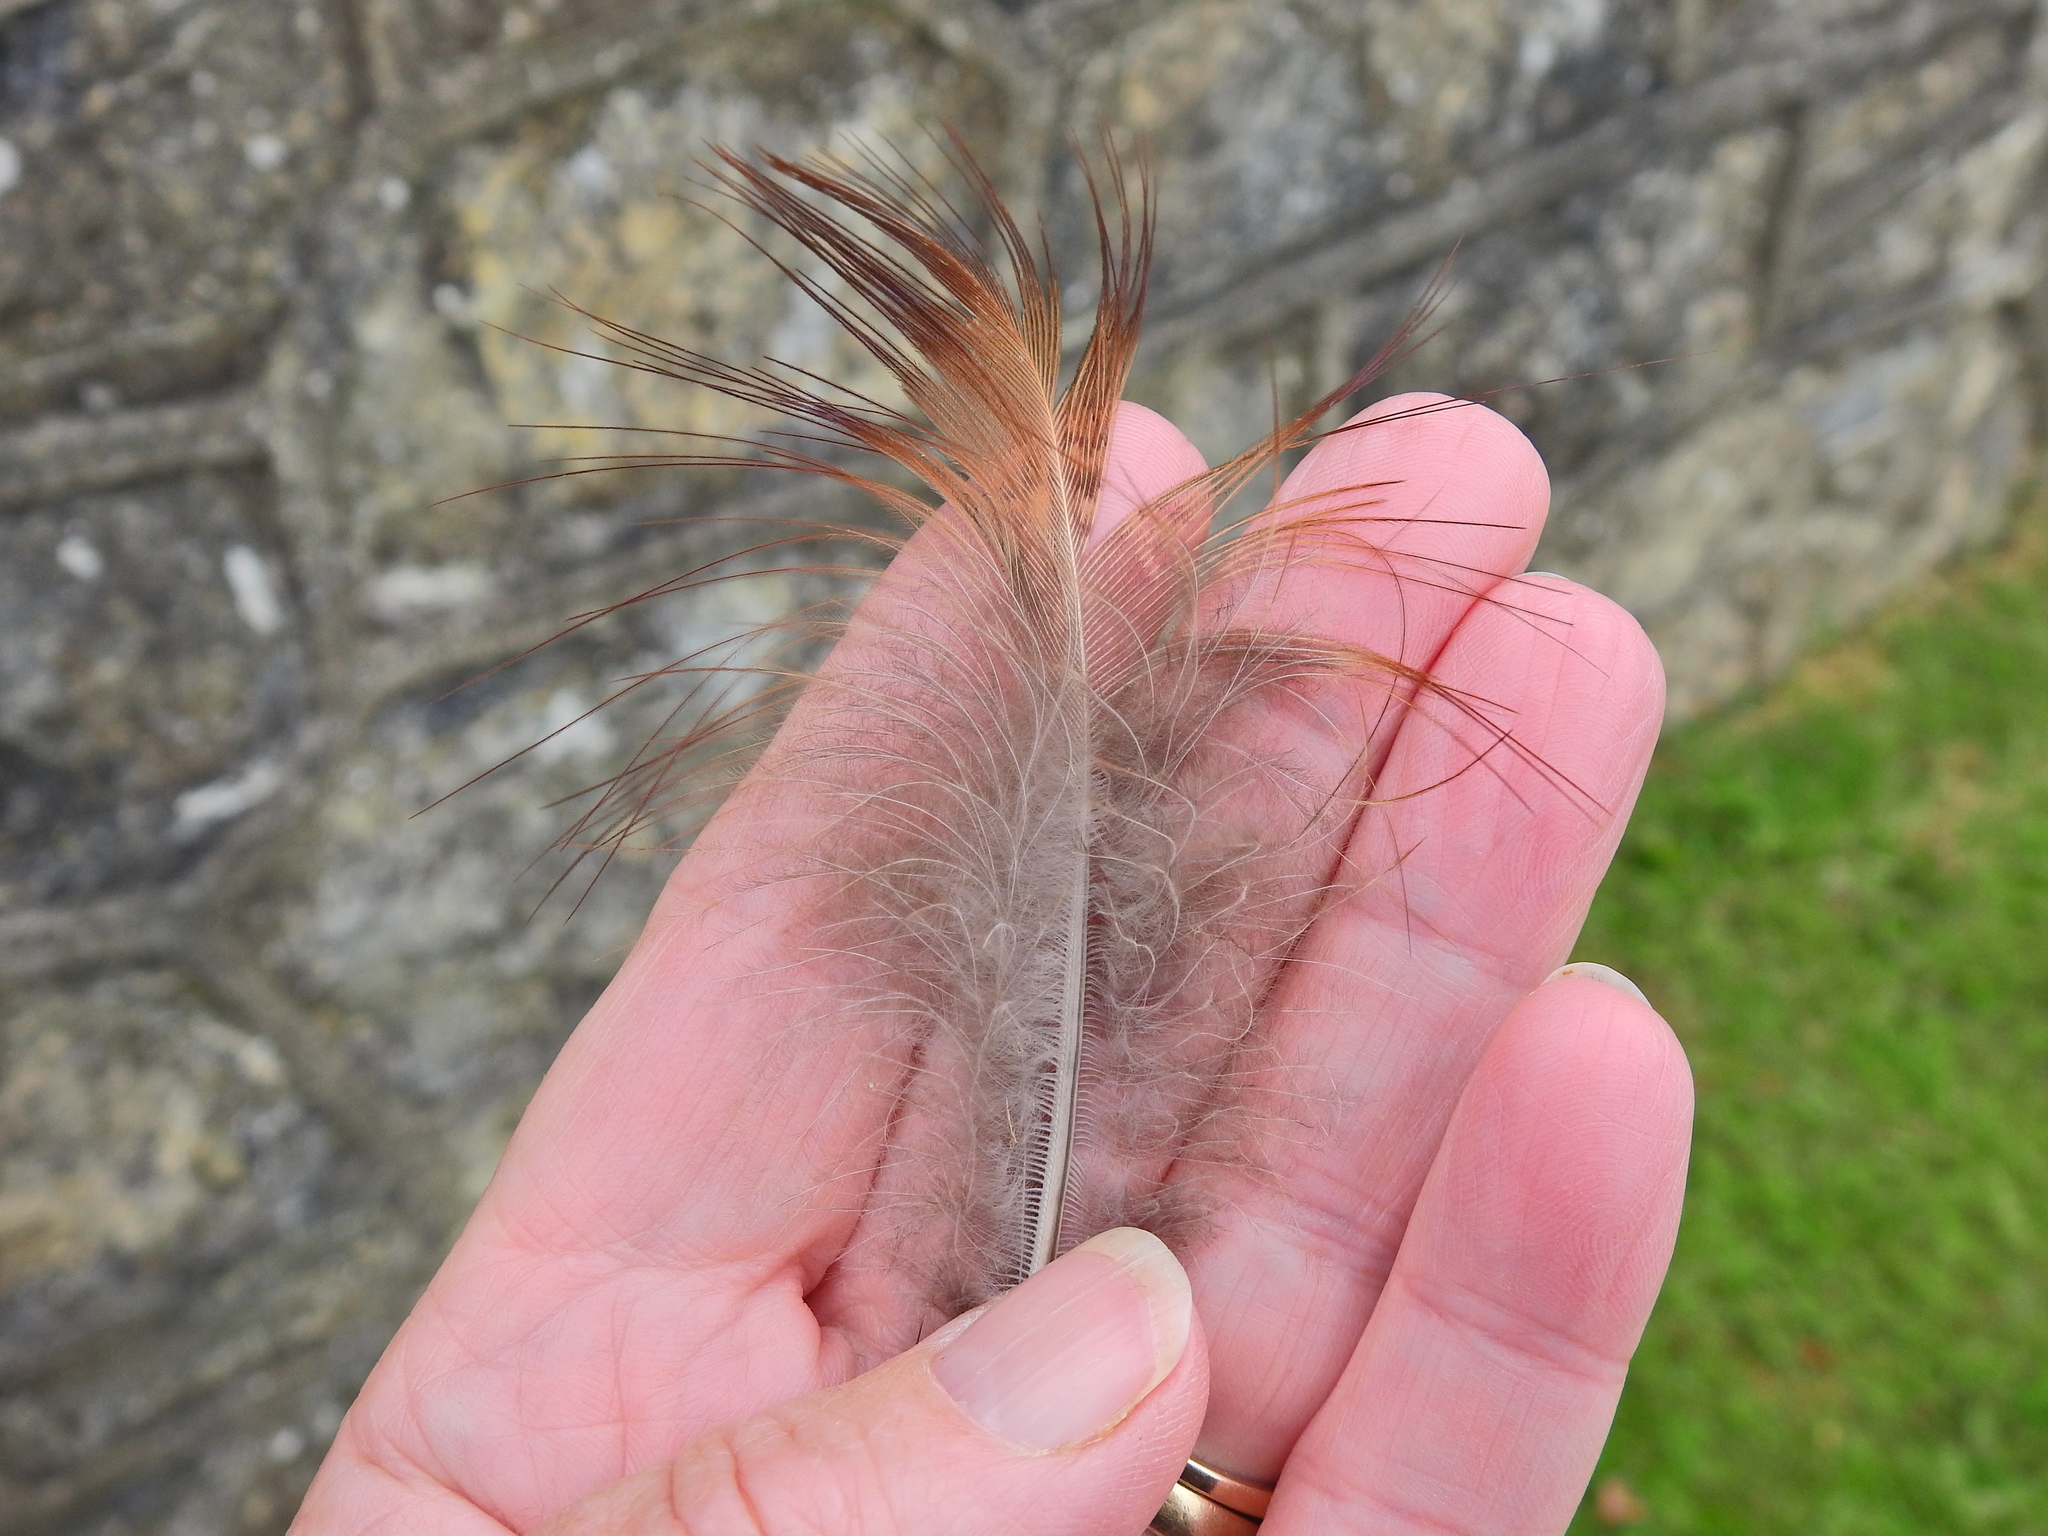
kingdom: Animalia
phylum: Chordata
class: Aves
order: Galliformes
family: Phasianidae
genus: Phasianus
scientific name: Phasianus colchicus
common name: Common pheasant
